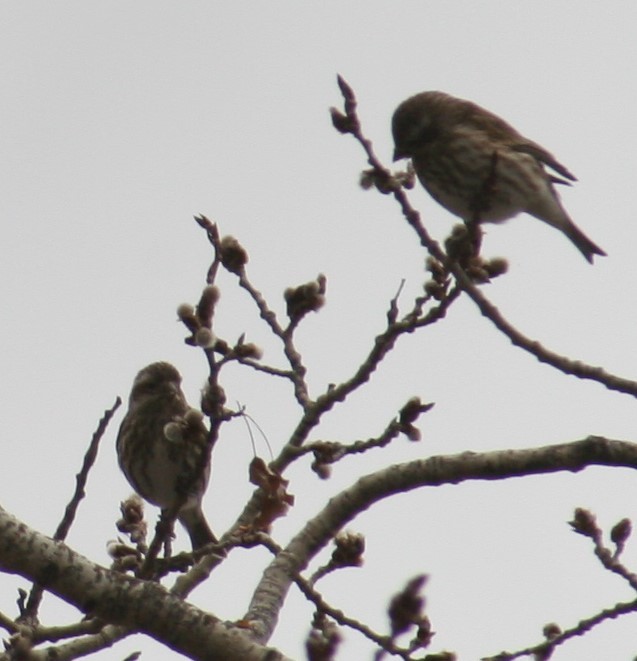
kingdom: Animalia
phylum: Chordata
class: Aves
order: Passeriformes
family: Fringillidae
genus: Haemorhous
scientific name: Haemorhous purpureus
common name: Purple finch
